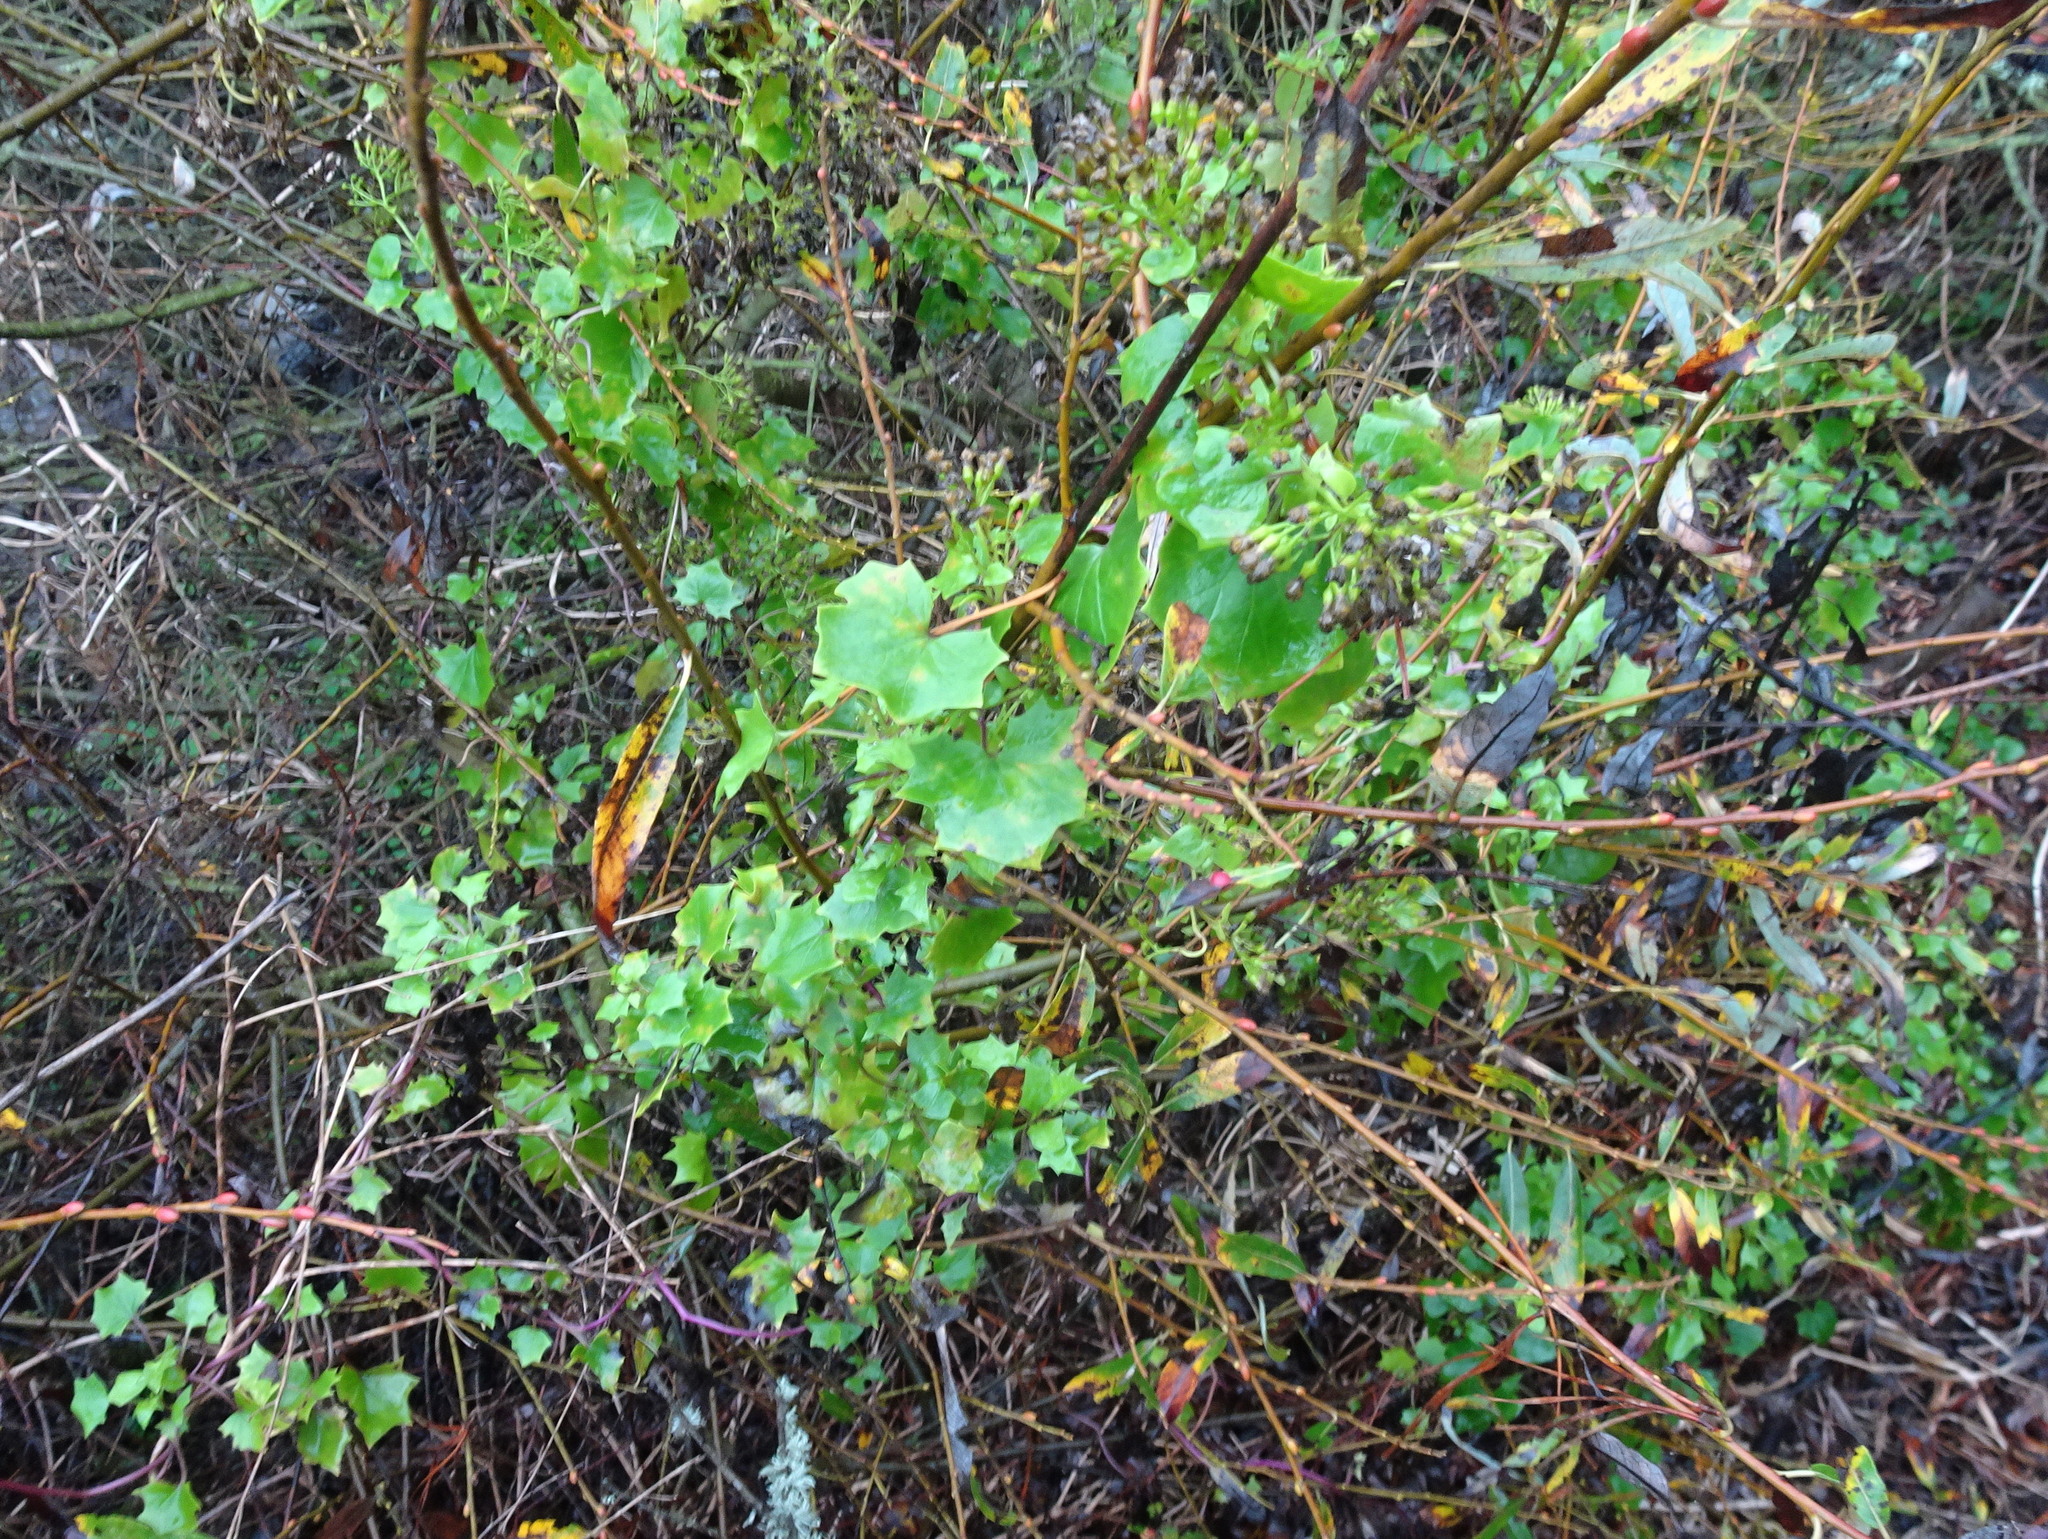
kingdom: Plantae
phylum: Tracheophyta
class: Magnoliopsida
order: Asterales
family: Asteraceae
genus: Delairea
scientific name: Delairea odorata
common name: Cape-ivy
